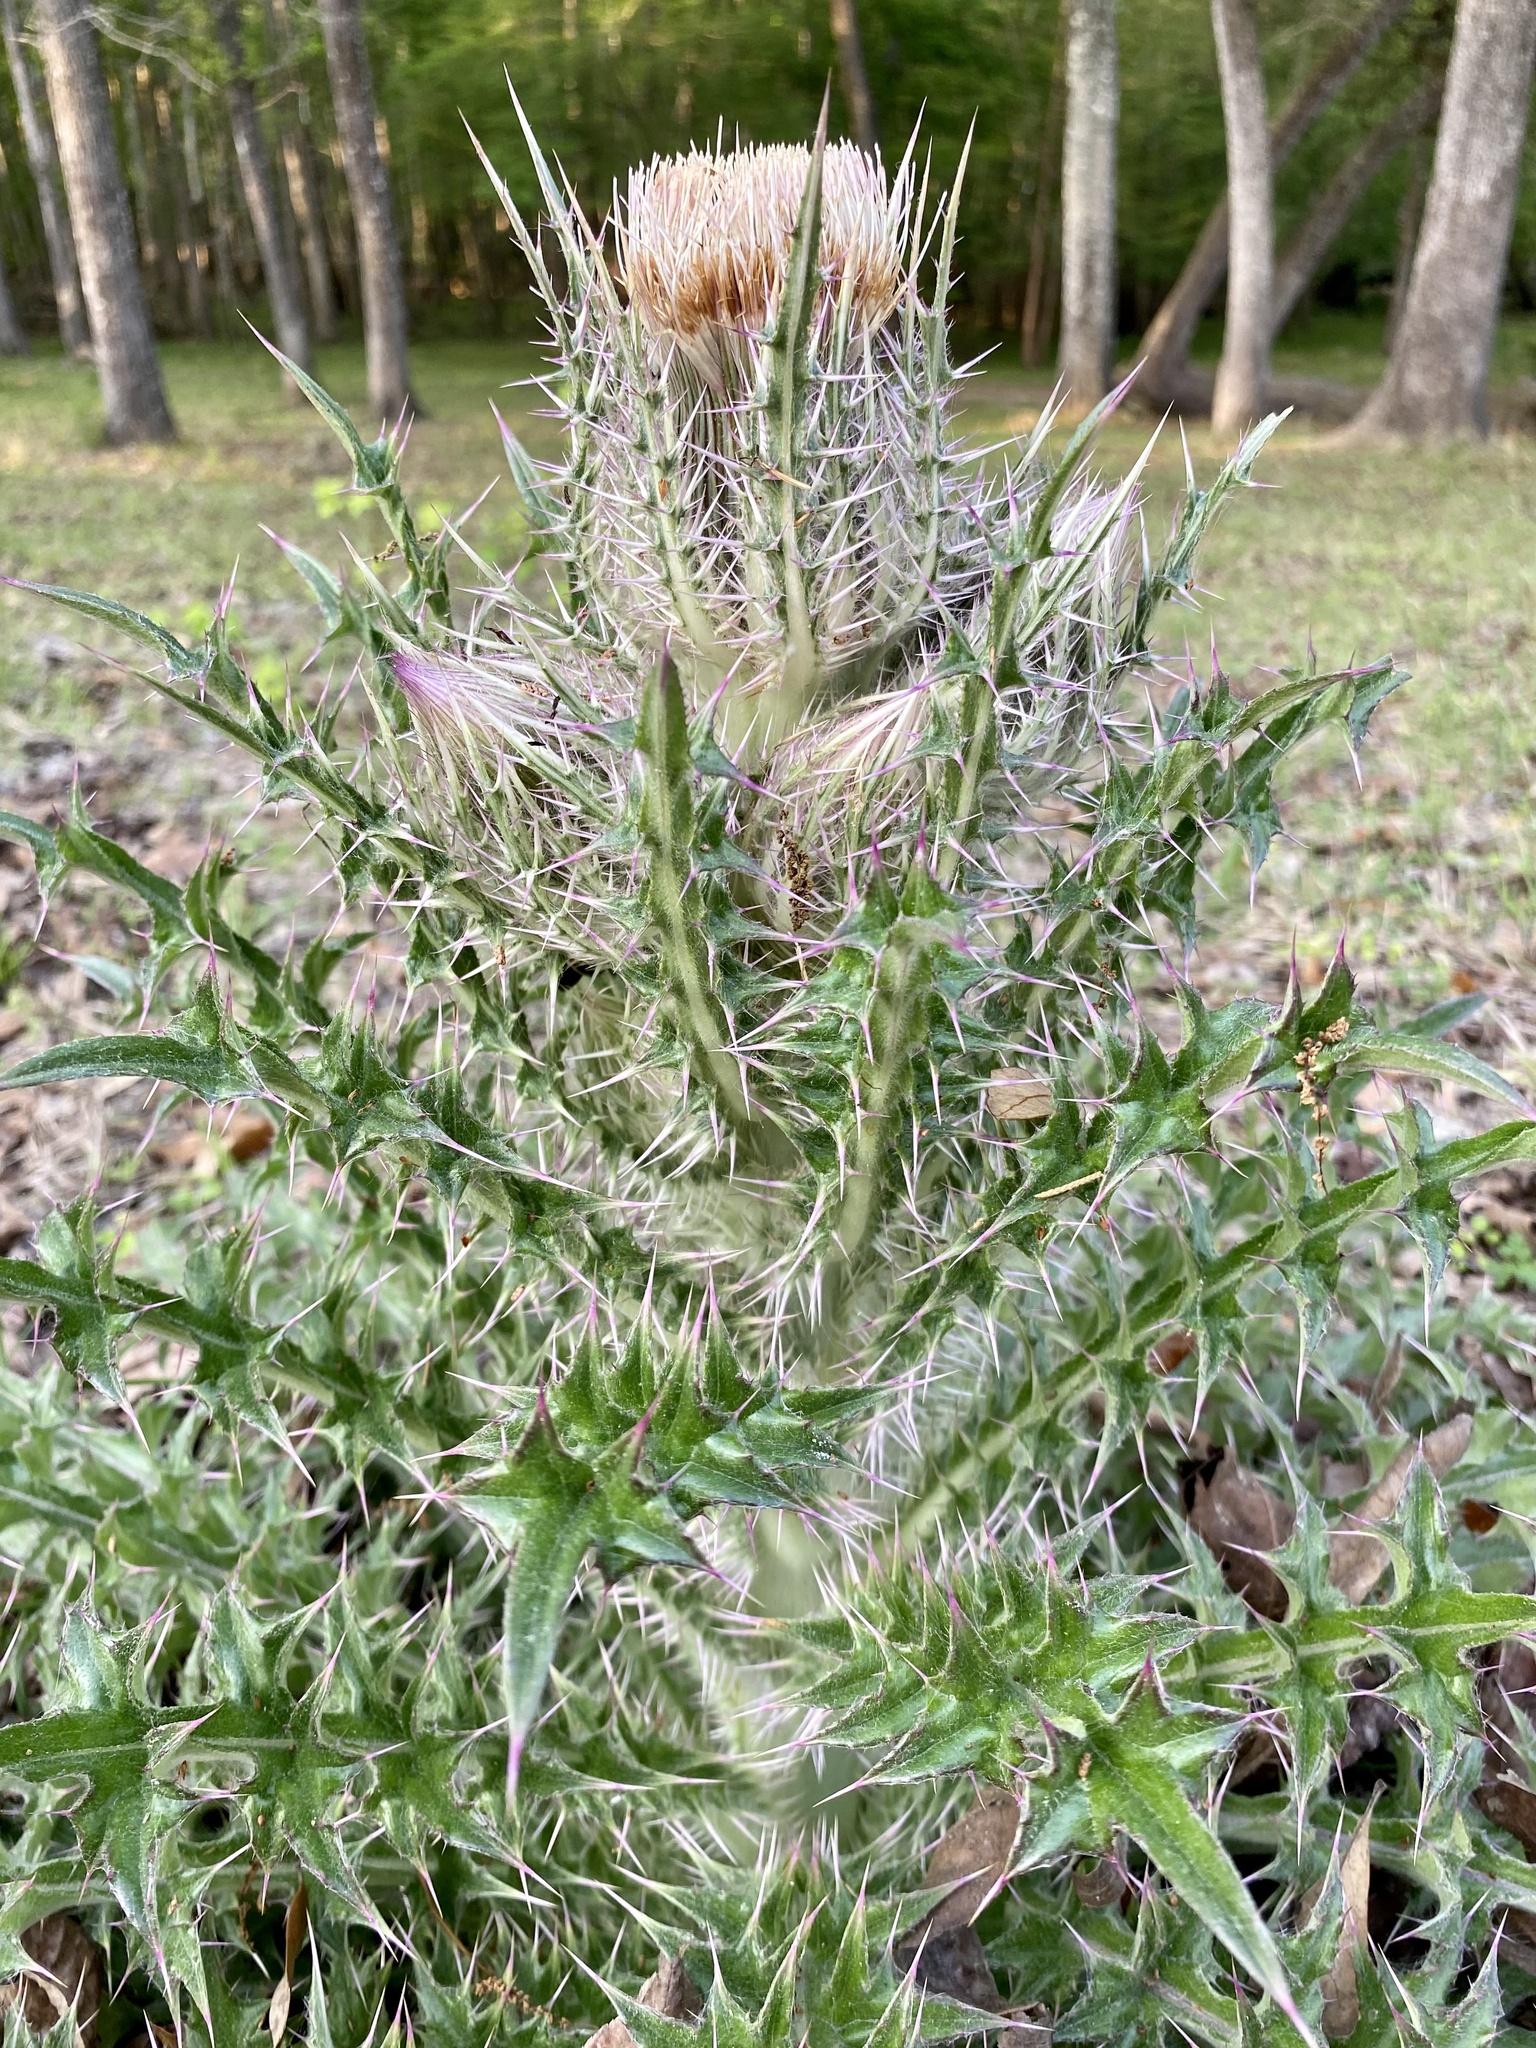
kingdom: Plantae
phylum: Tracheophyta
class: Magnoliopsida
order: Asterales
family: Asteraceae
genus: Cirsium
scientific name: Cirsium horridulum
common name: Bristly thistle
